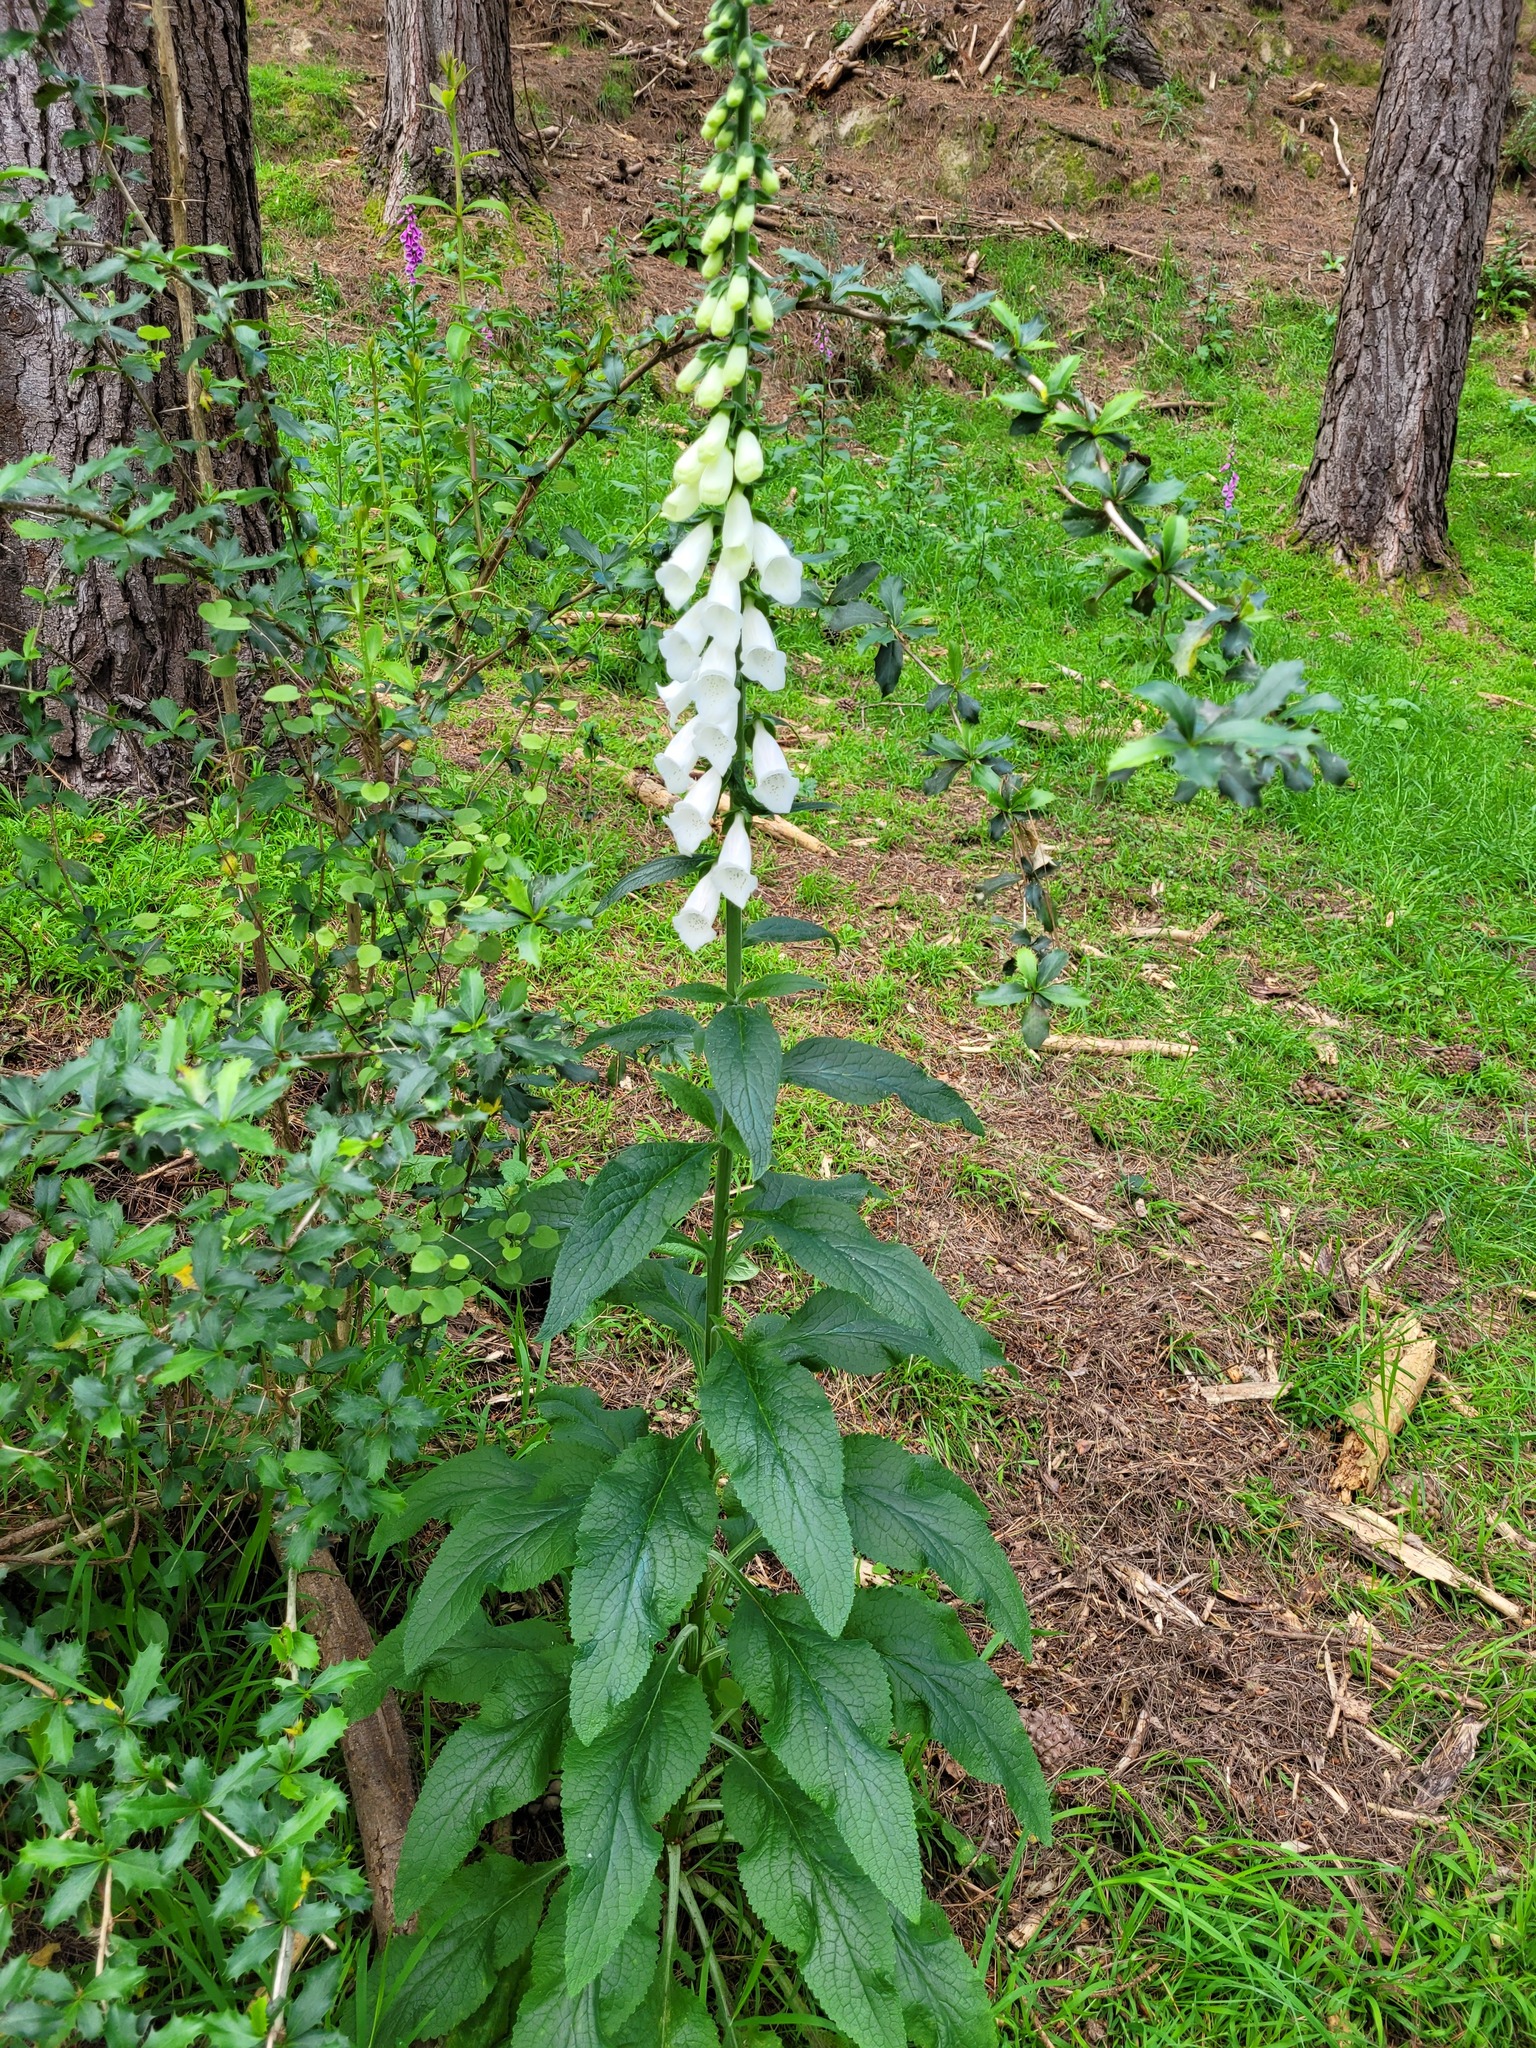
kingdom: Plantae
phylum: Tracheophyta
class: Magnoliopsida
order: Lamiales
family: Plantaginaceae
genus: Digitalis
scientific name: Digitalis purpurea
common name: Foxglove
